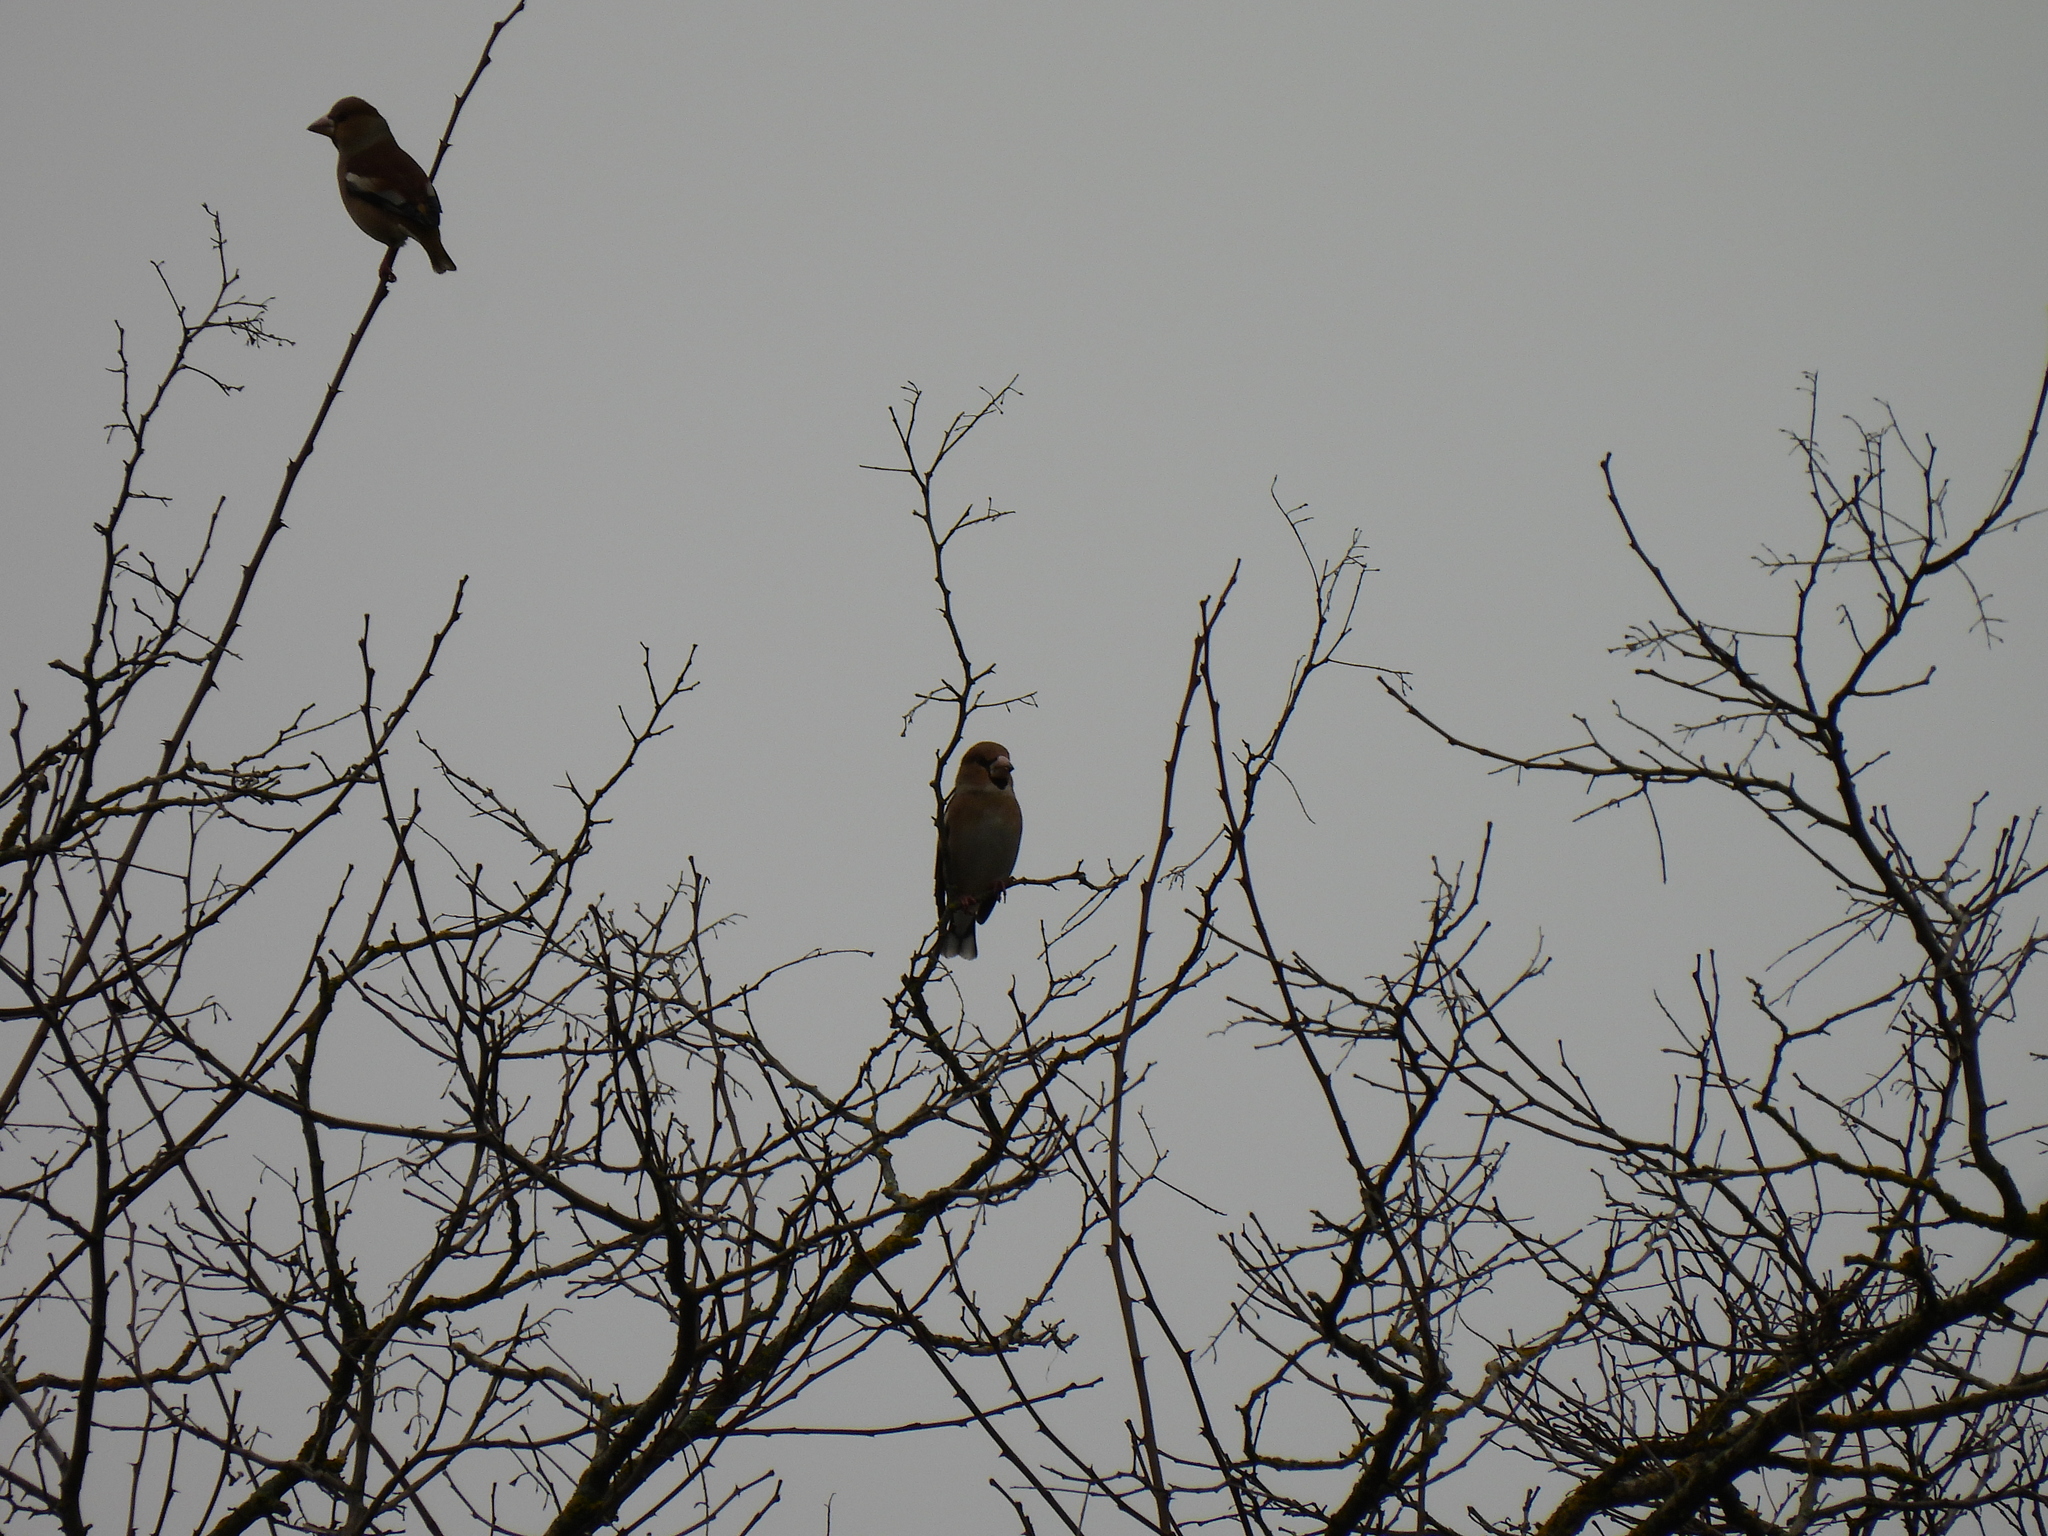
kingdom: Animalia
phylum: Chordata
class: Aves
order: Passeriformes
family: Fringillidae
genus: Coccothraustes
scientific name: Coccothraustes coccothraustes
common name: Hawfinch
